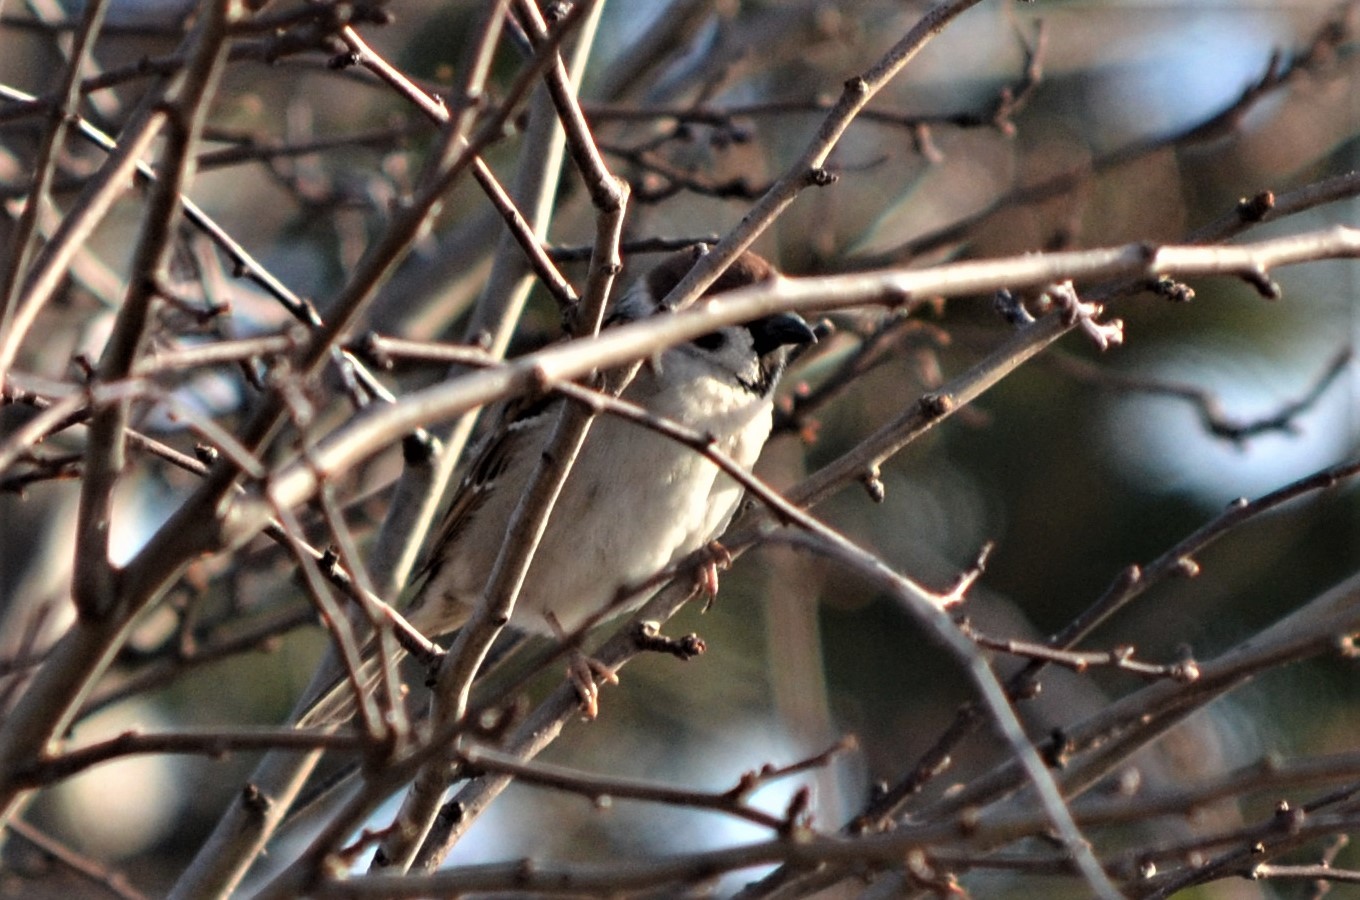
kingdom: Animalia
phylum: Chordata
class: Aves
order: Passeriformes
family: Passeridae
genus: Passer
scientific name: Passer montanus
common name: Eurasian tree sparrow
